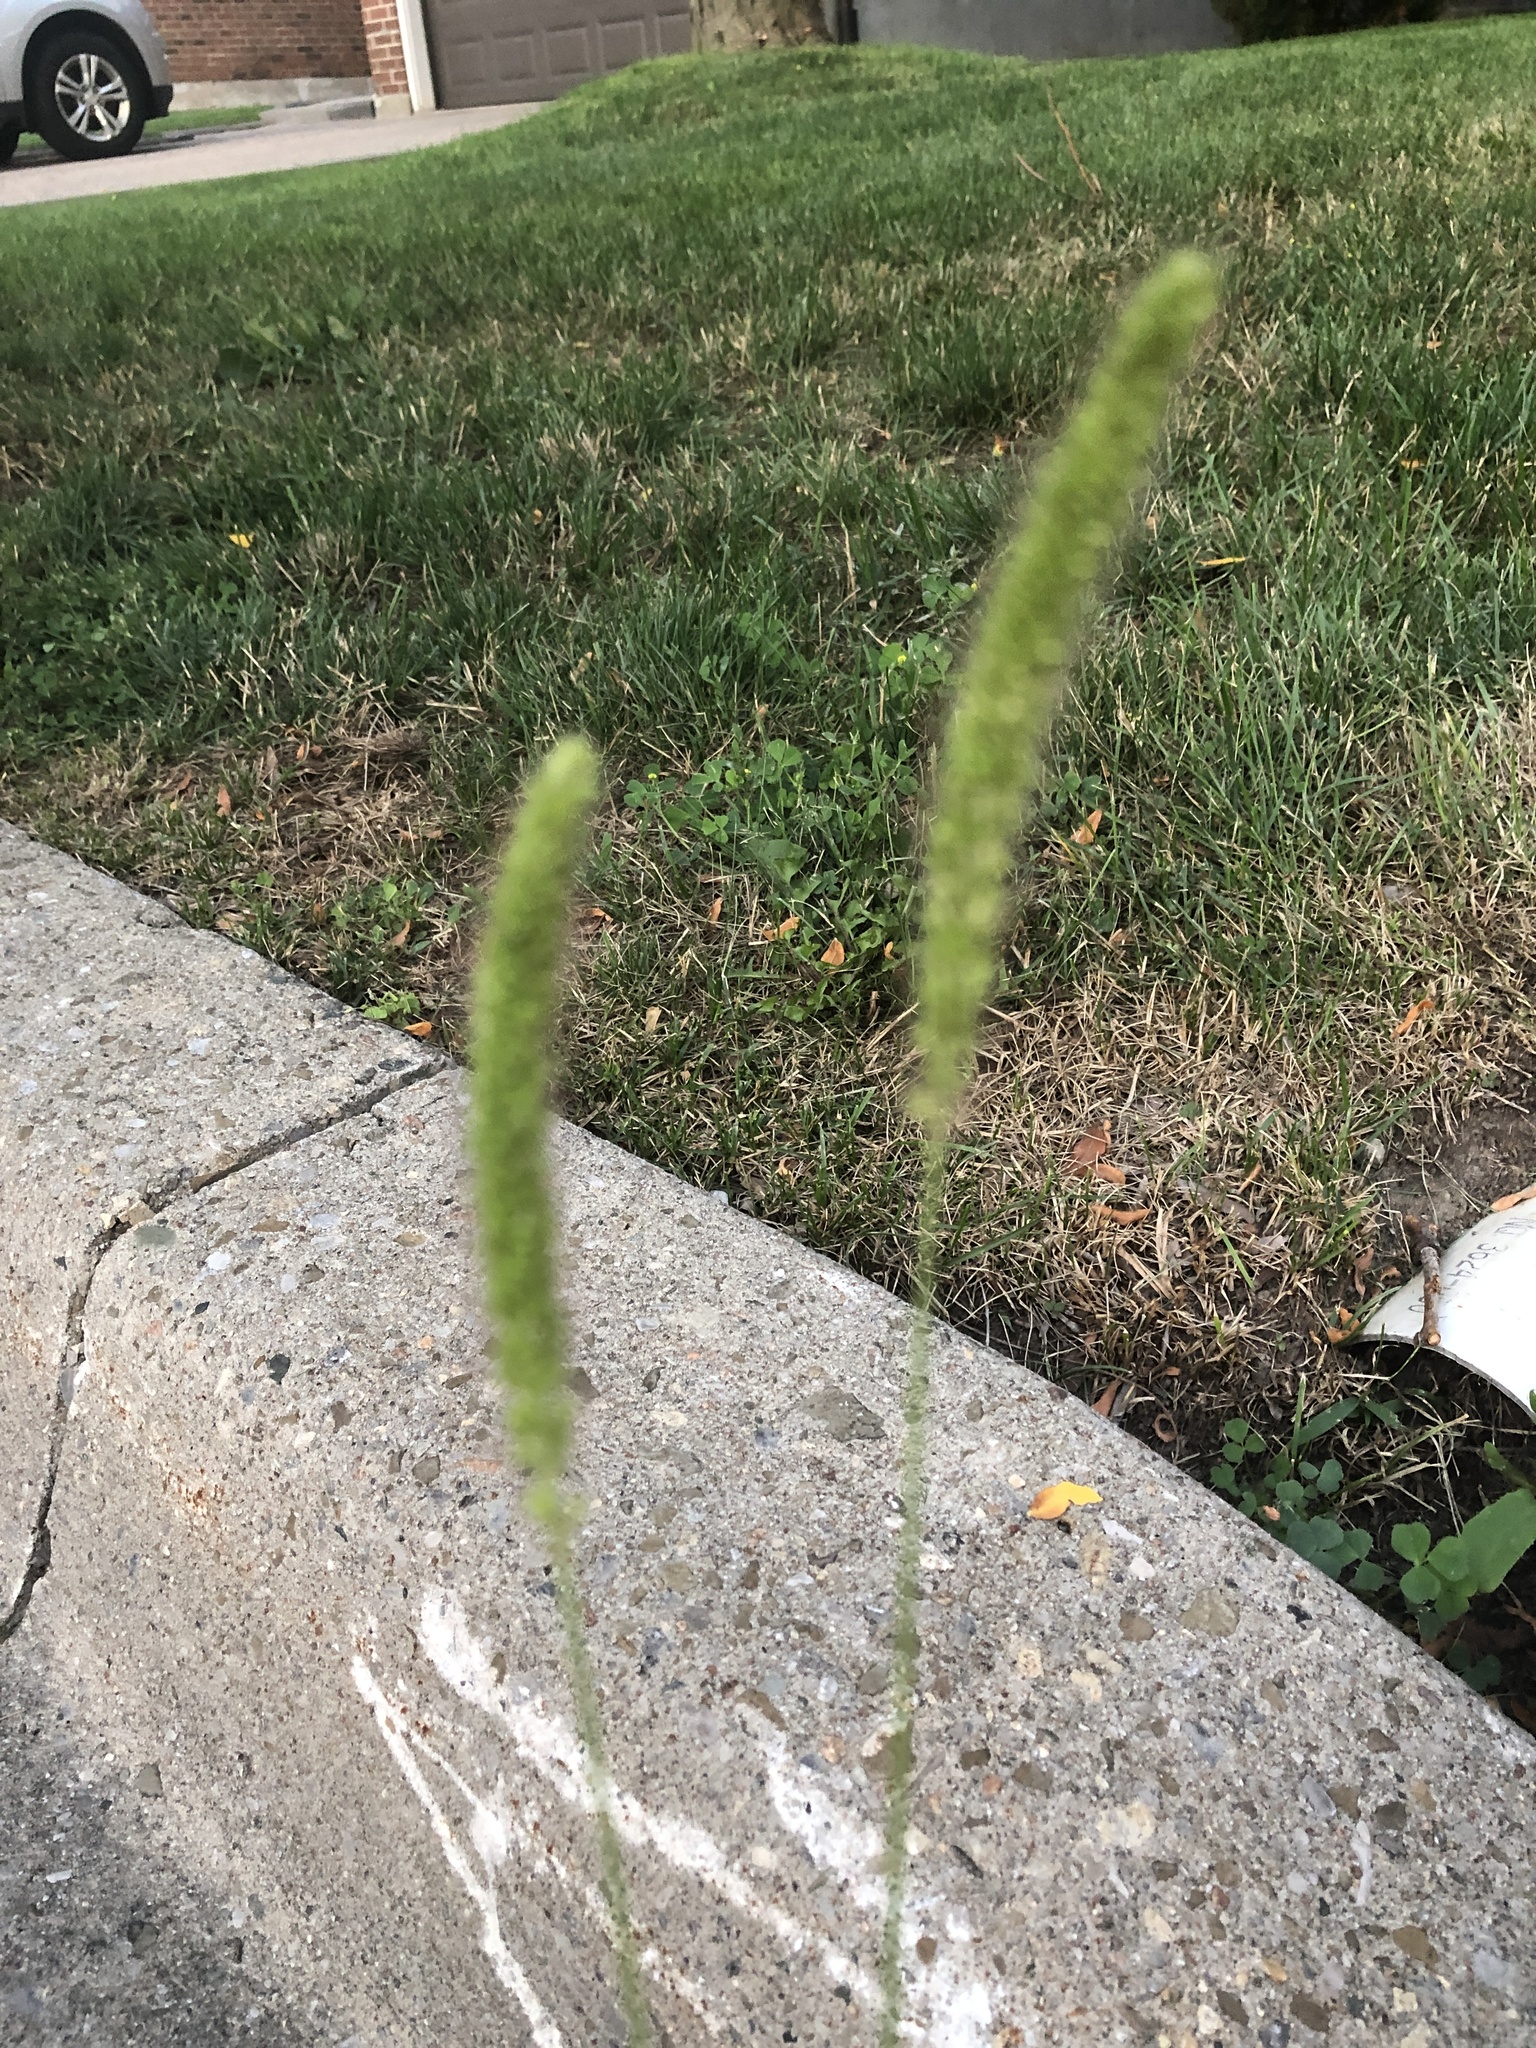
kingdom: Plantae
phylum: Tracheophyta
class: Liliopsida
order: Poales
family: Poaceae
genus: Setaria
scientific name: Setaria viridis
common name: Green bristlegrass
